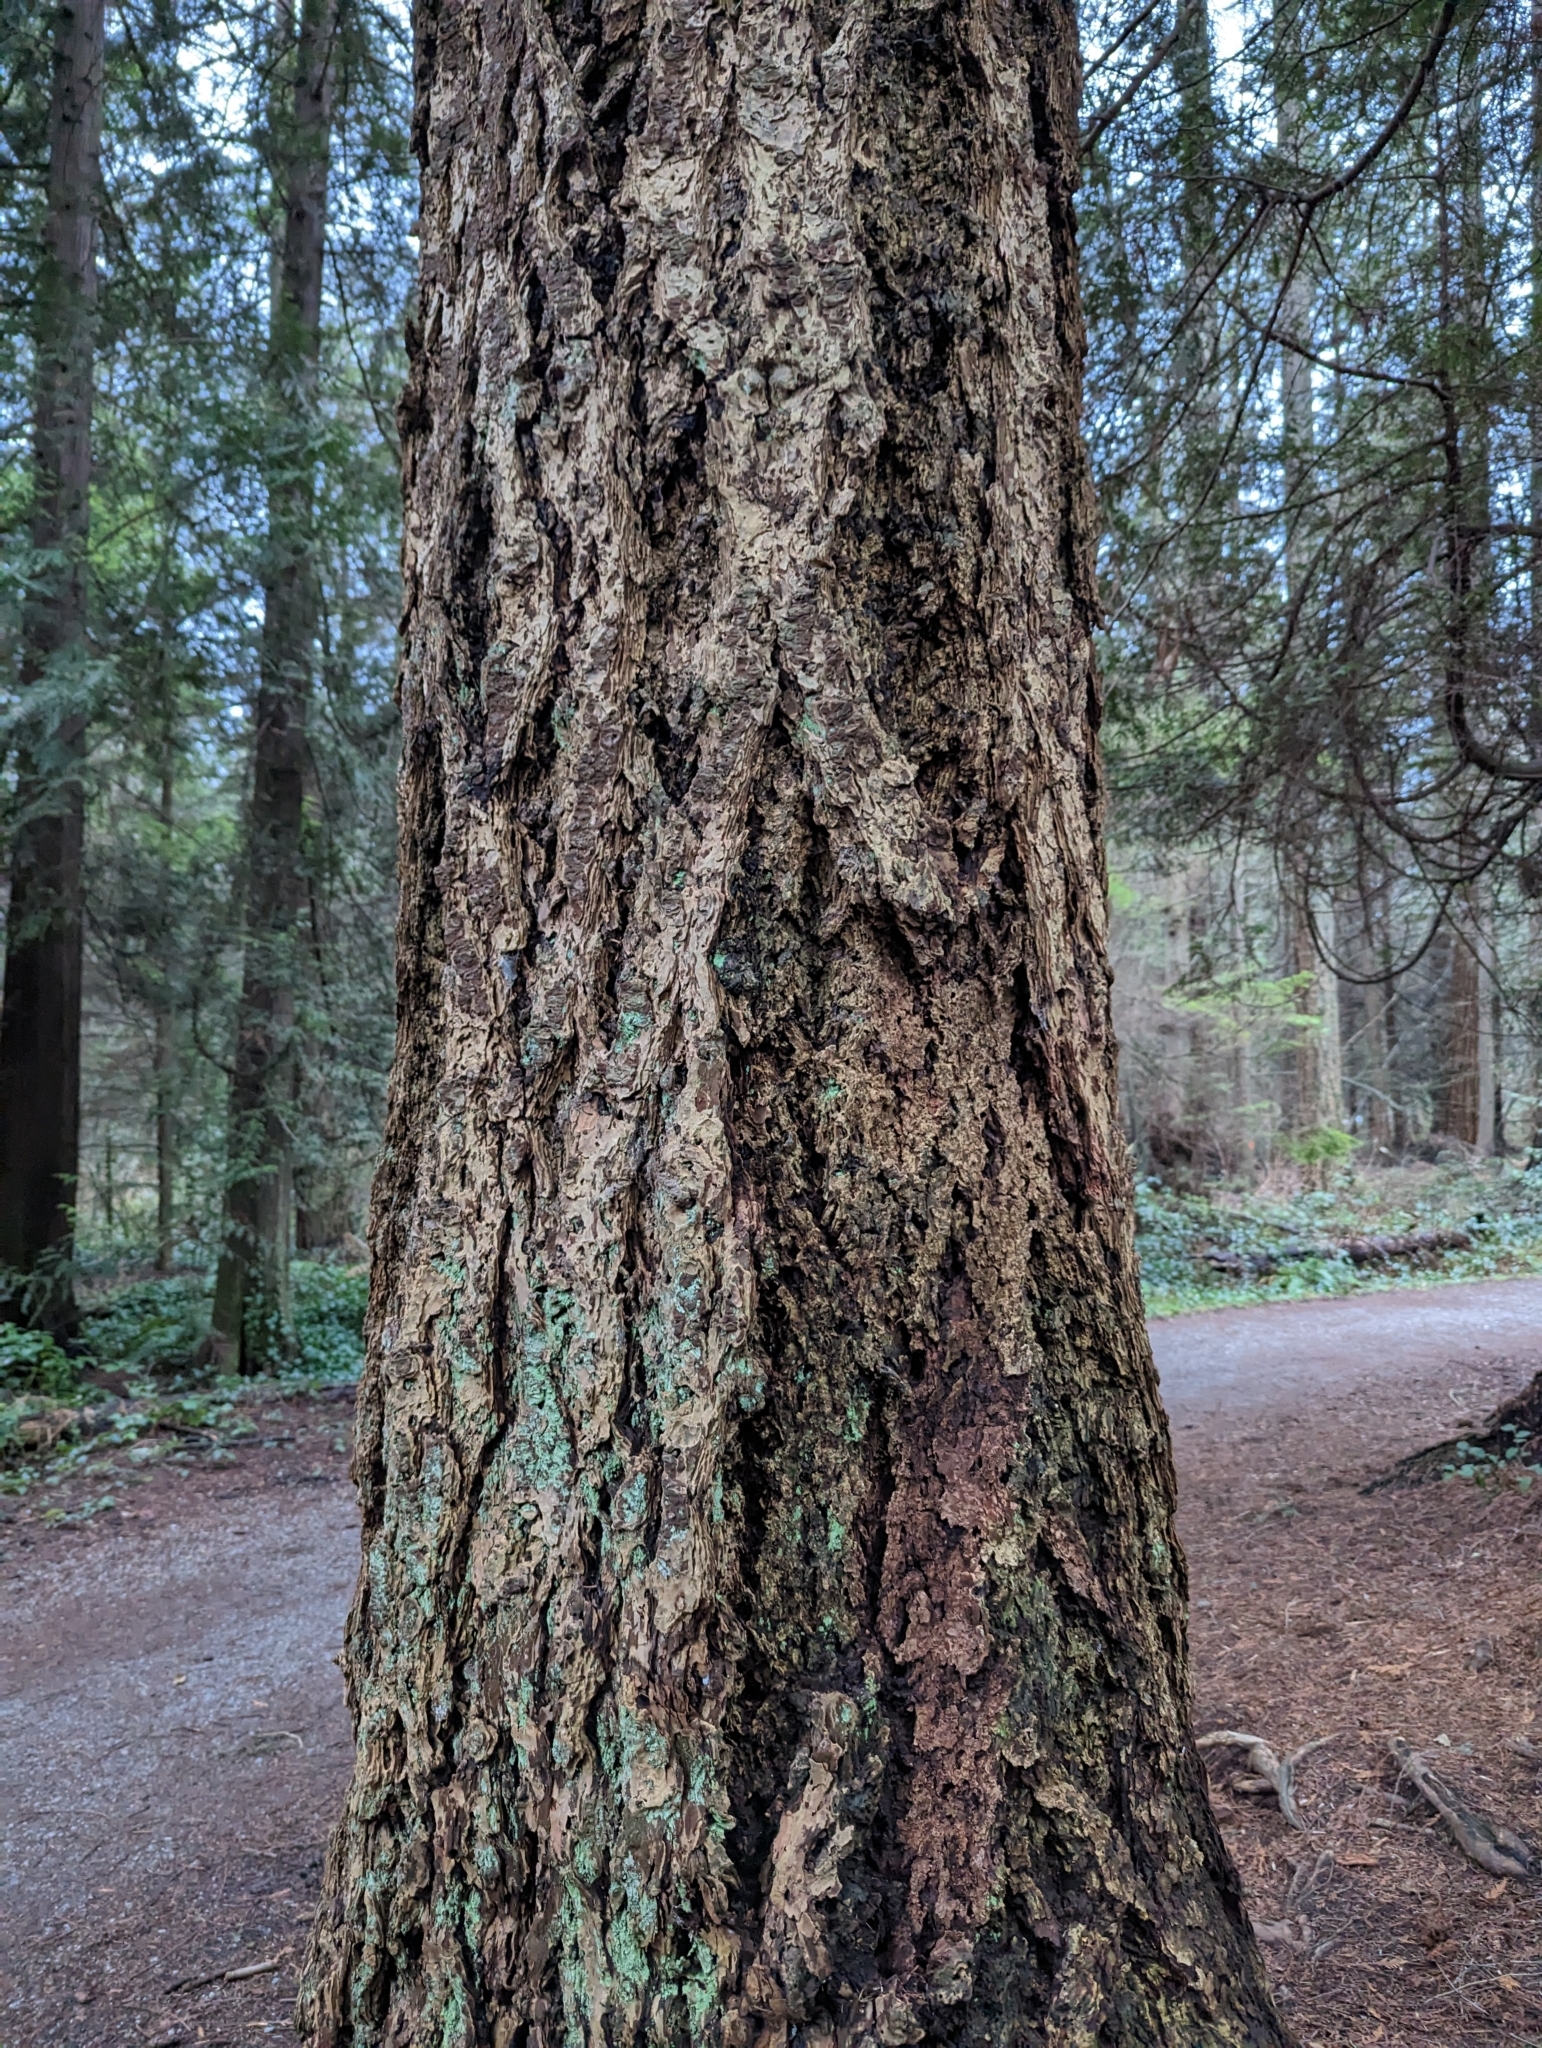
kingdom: Plantae
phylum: Tracheophyta
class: Pinopsida
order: Pinales
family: Pinaceae
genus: Pseudotsuga
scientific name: Pseudotsuga menziesii
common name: Douglas fir
